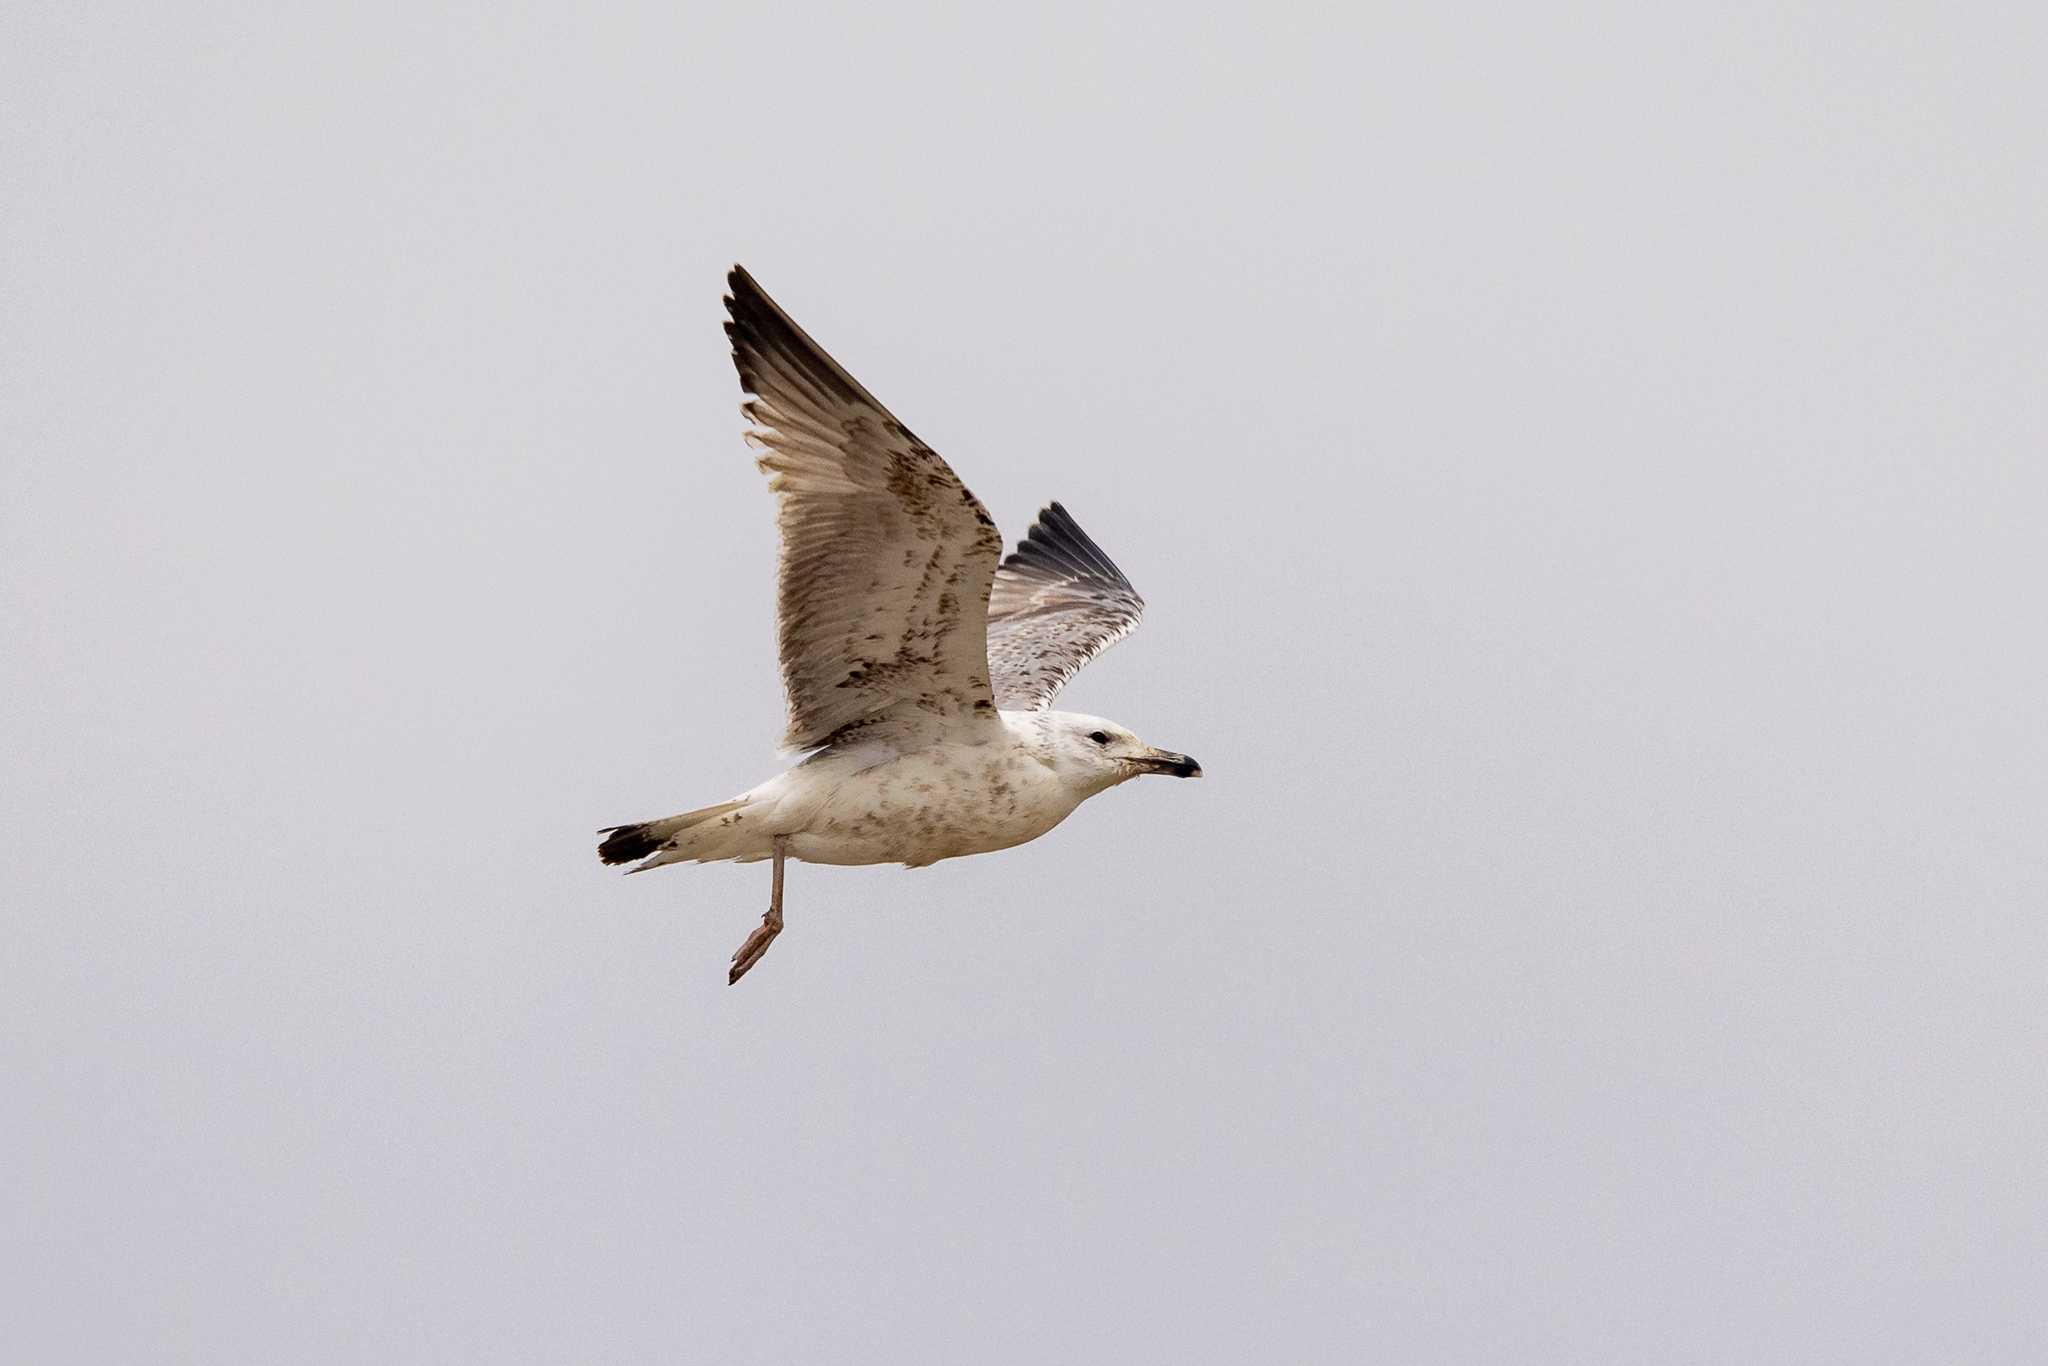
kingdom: Animalia
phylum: Chordata
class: Aves
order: Charadriiformes
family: Laridae
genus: Larus
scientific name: Larus cachinnans
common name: Caspian gull
